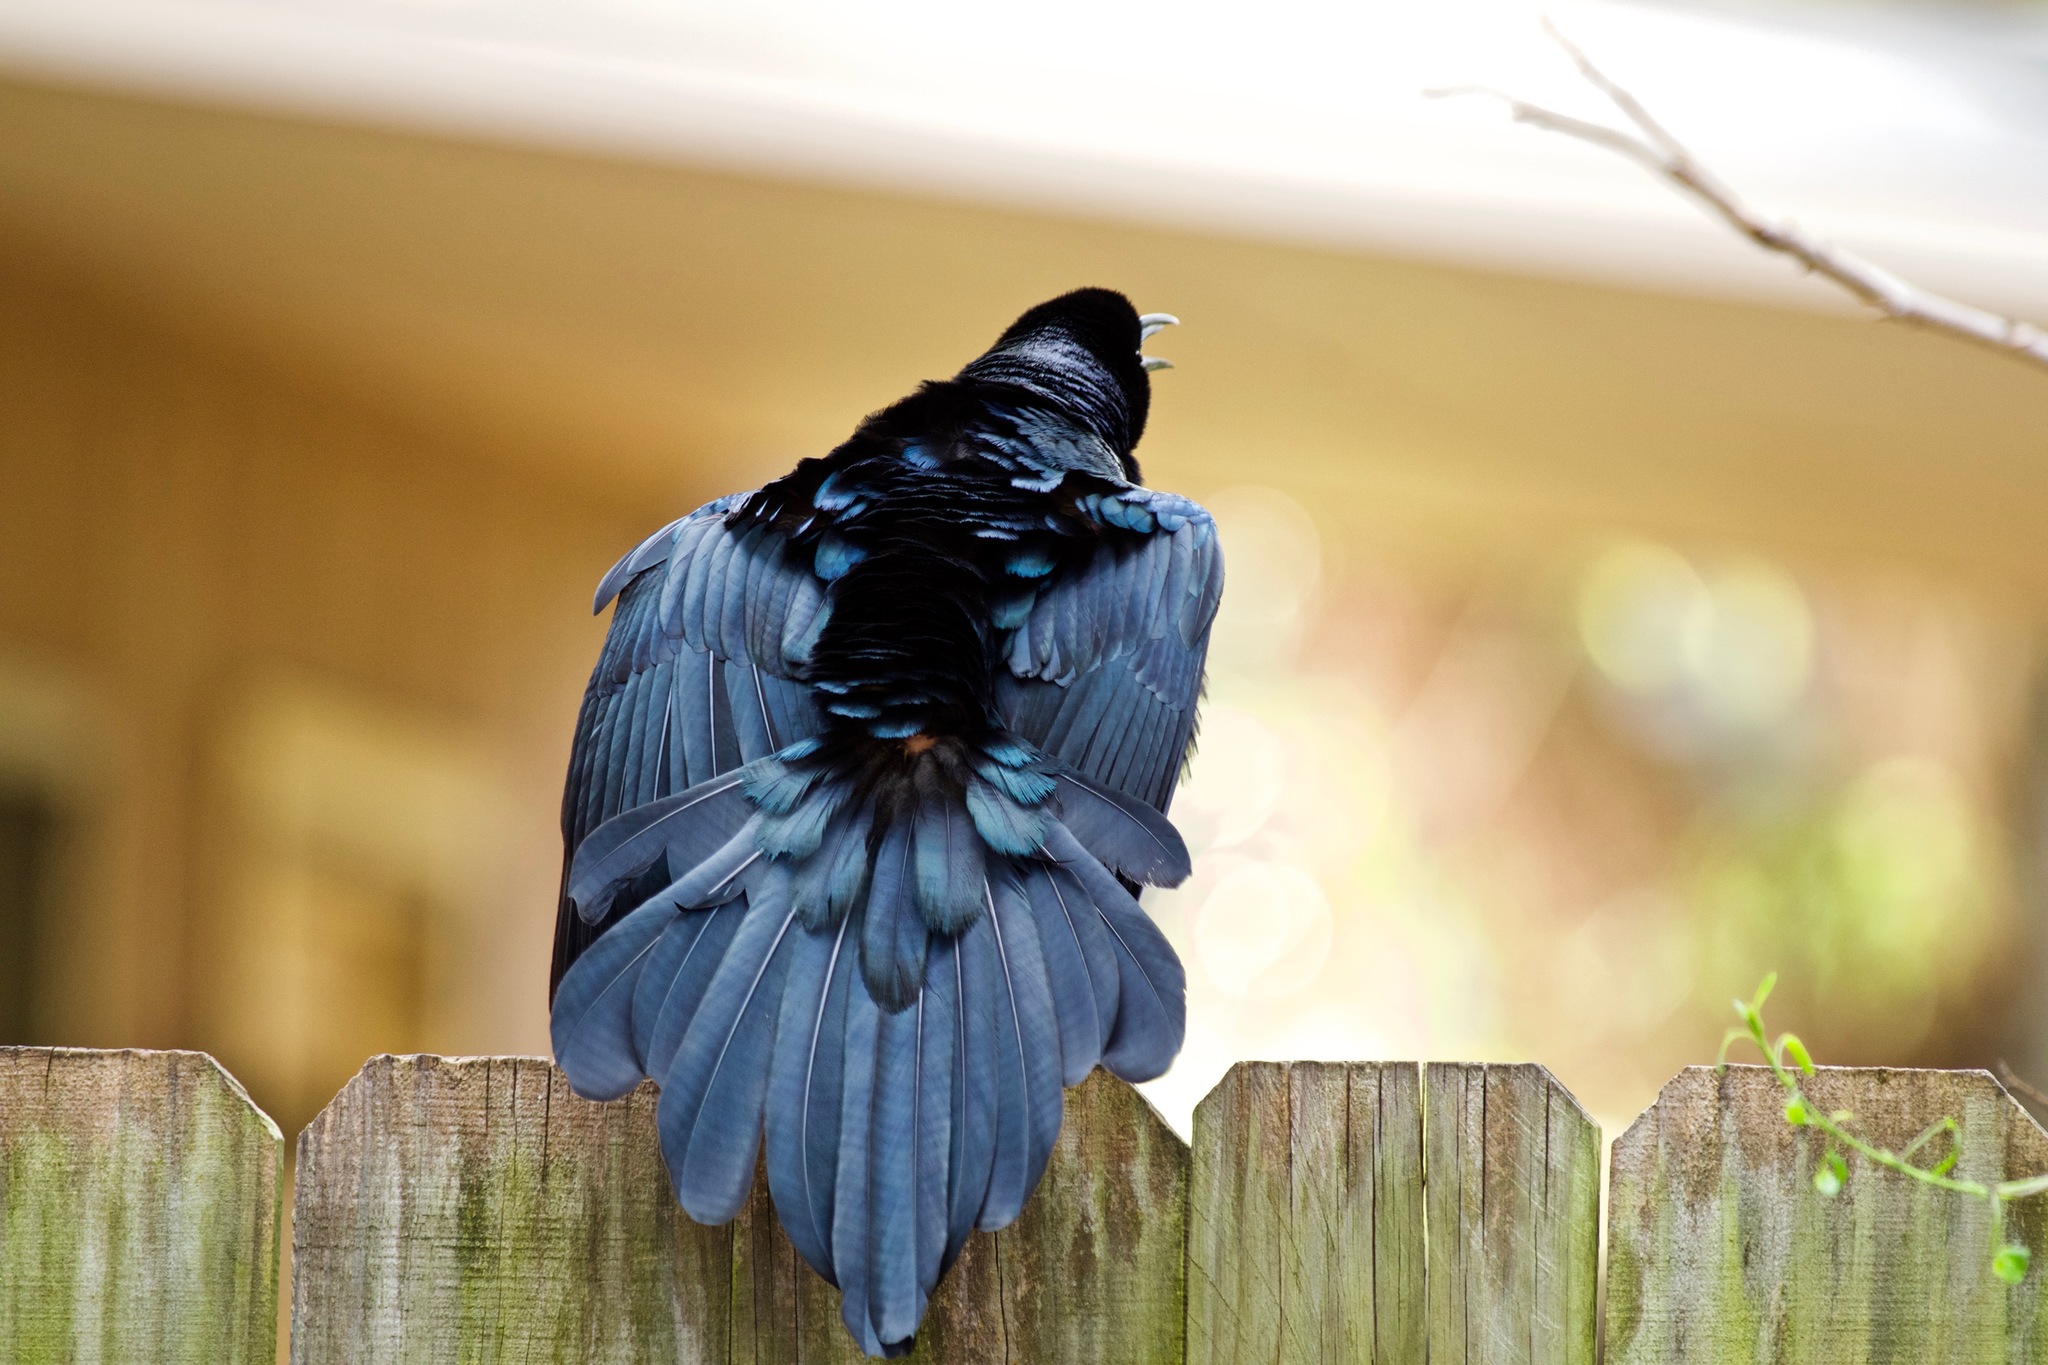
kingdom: Animalia
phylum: Chordata
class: Aves
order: Passeriformes
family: Icteridae
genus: Quiscalus
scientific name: Quiscalus mexicanus
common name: Great-tailed grackle
